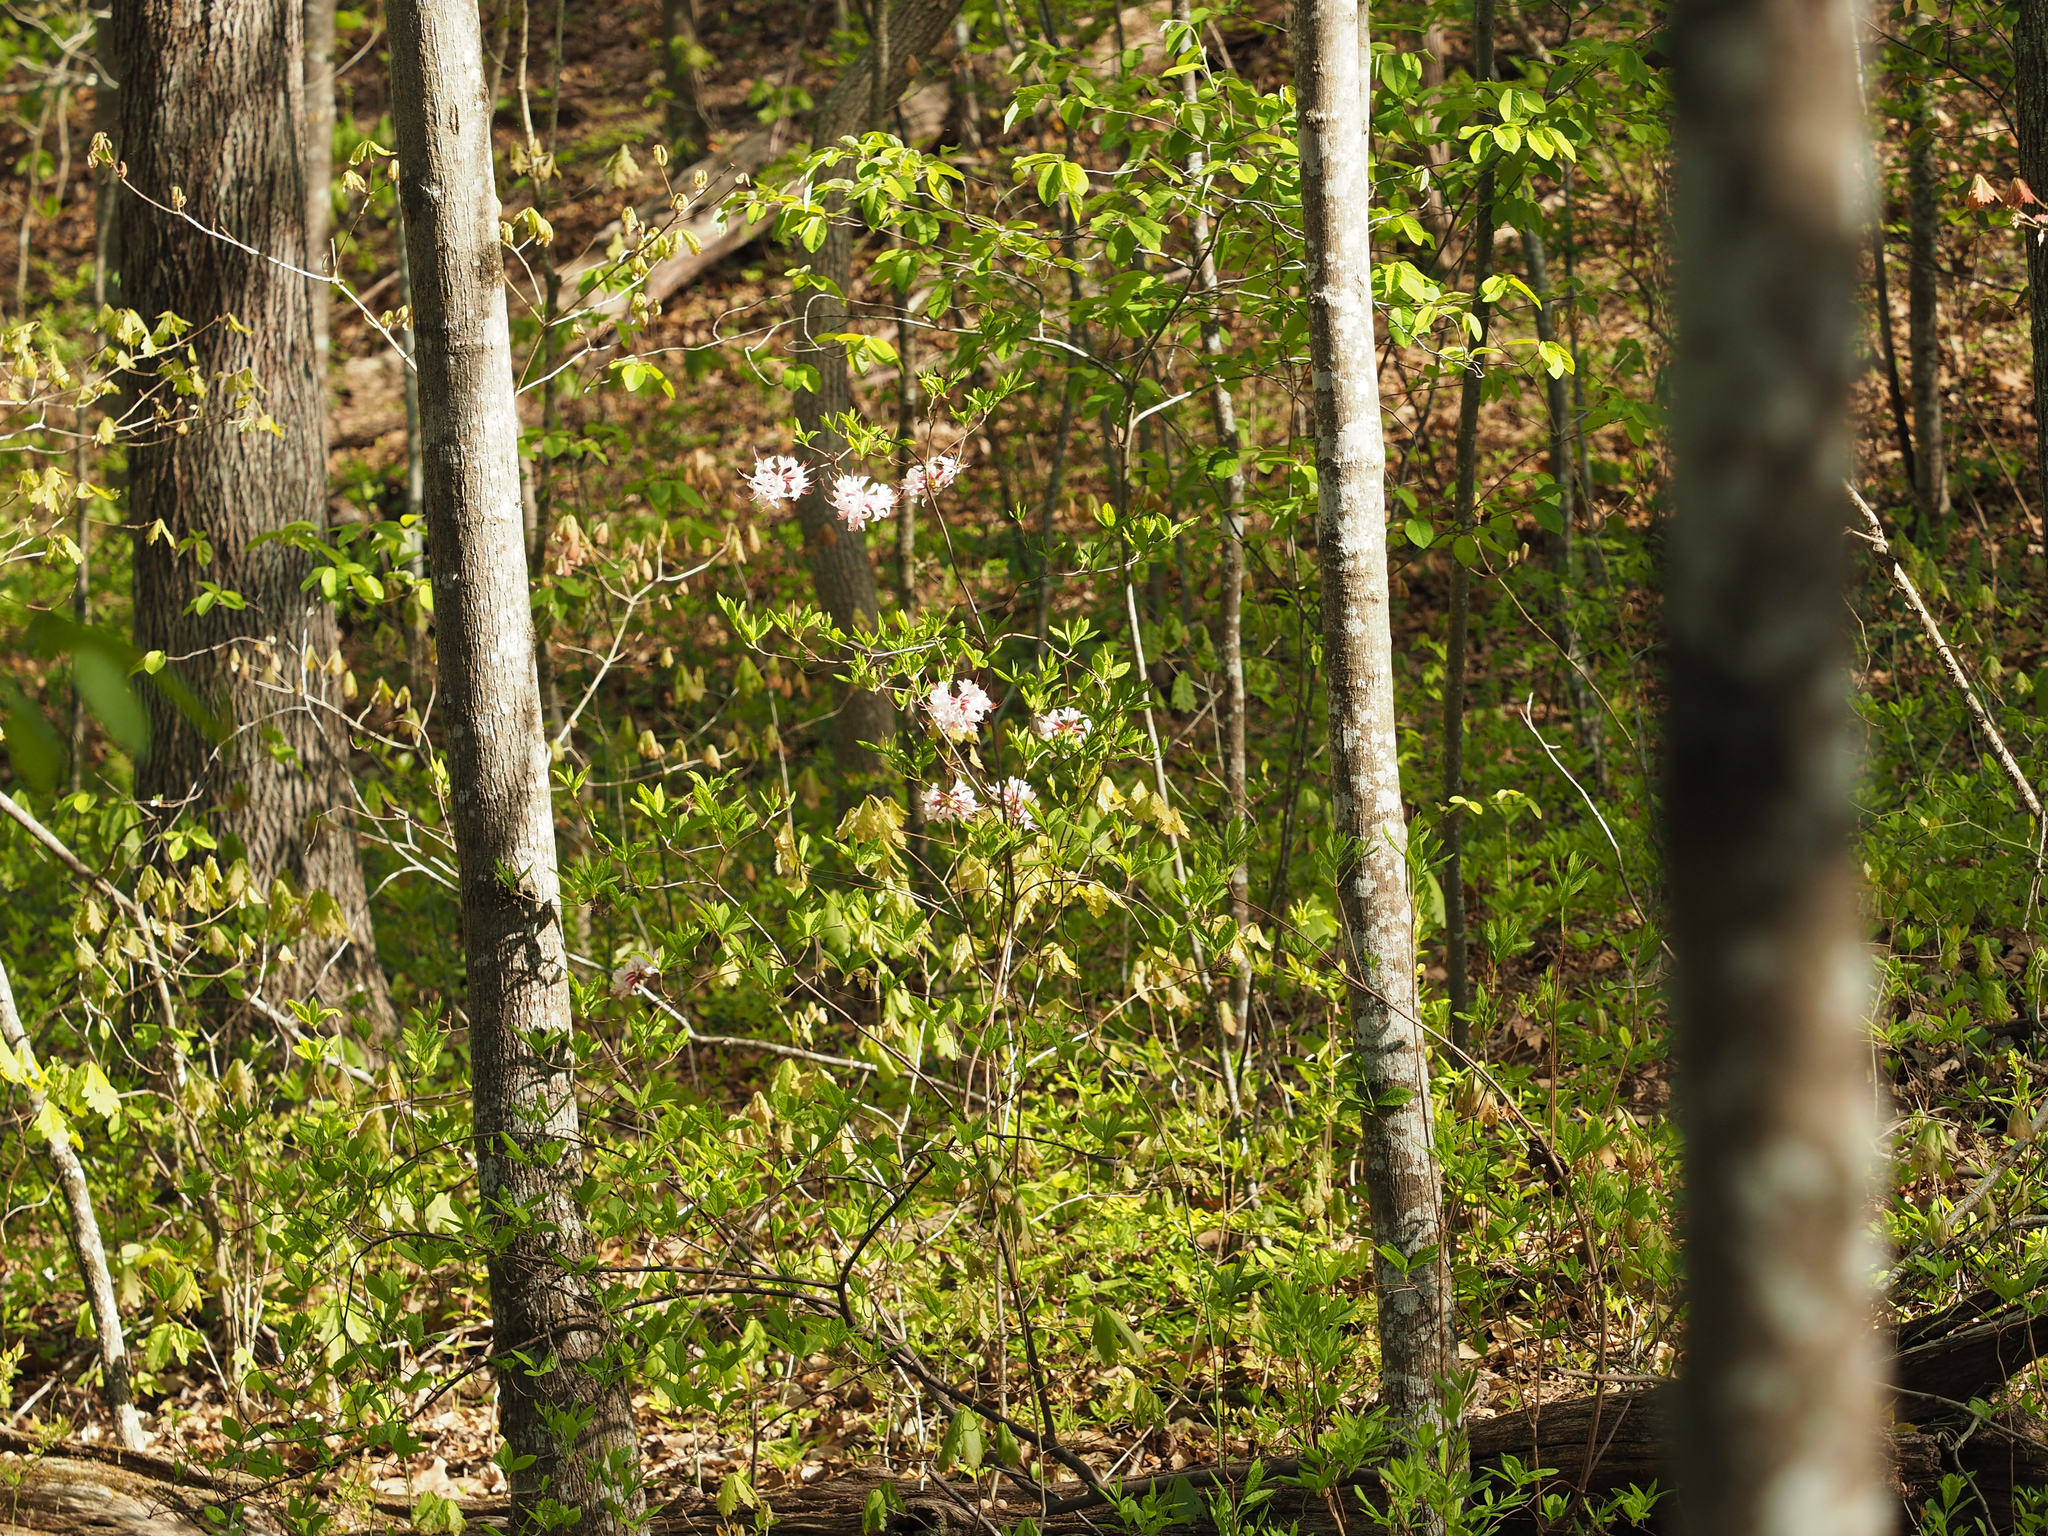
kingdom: Plantae
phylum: Tracheophyta
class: Magnoliopsida
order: Ericales
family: Ericaceae
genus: Rhododendron
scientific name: Rhododendron periclymenoides
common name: Election-pink
